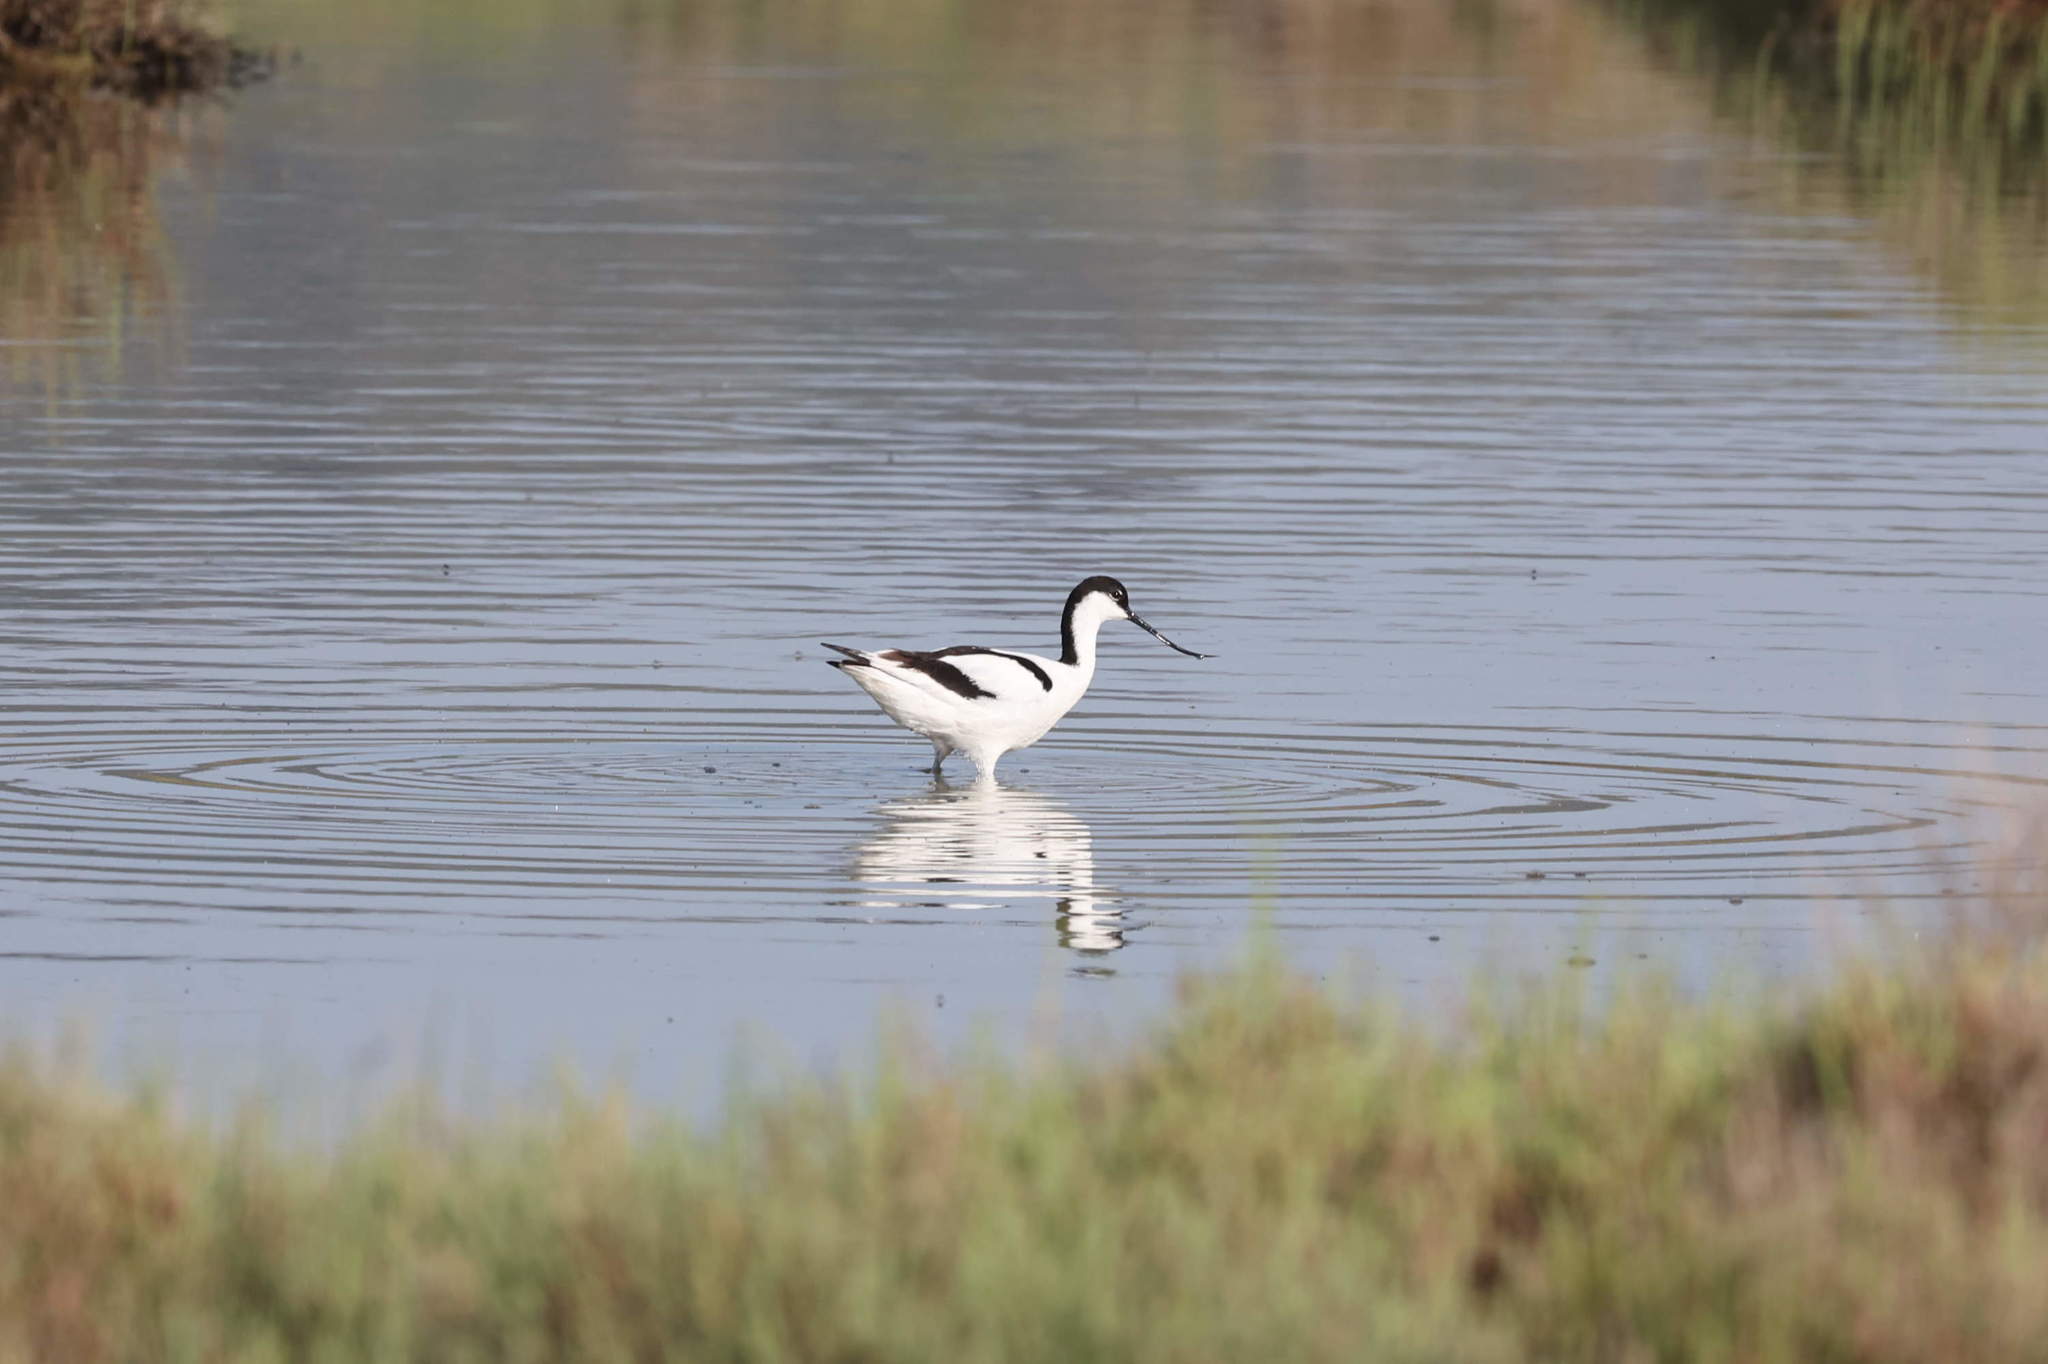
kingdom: Animalia
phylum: Chordata
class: Aves
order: Charadriiformes
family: Recurvirostridae
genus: Recurvirostra
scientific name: Recurvirostra avosetta
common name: Pied avocet
